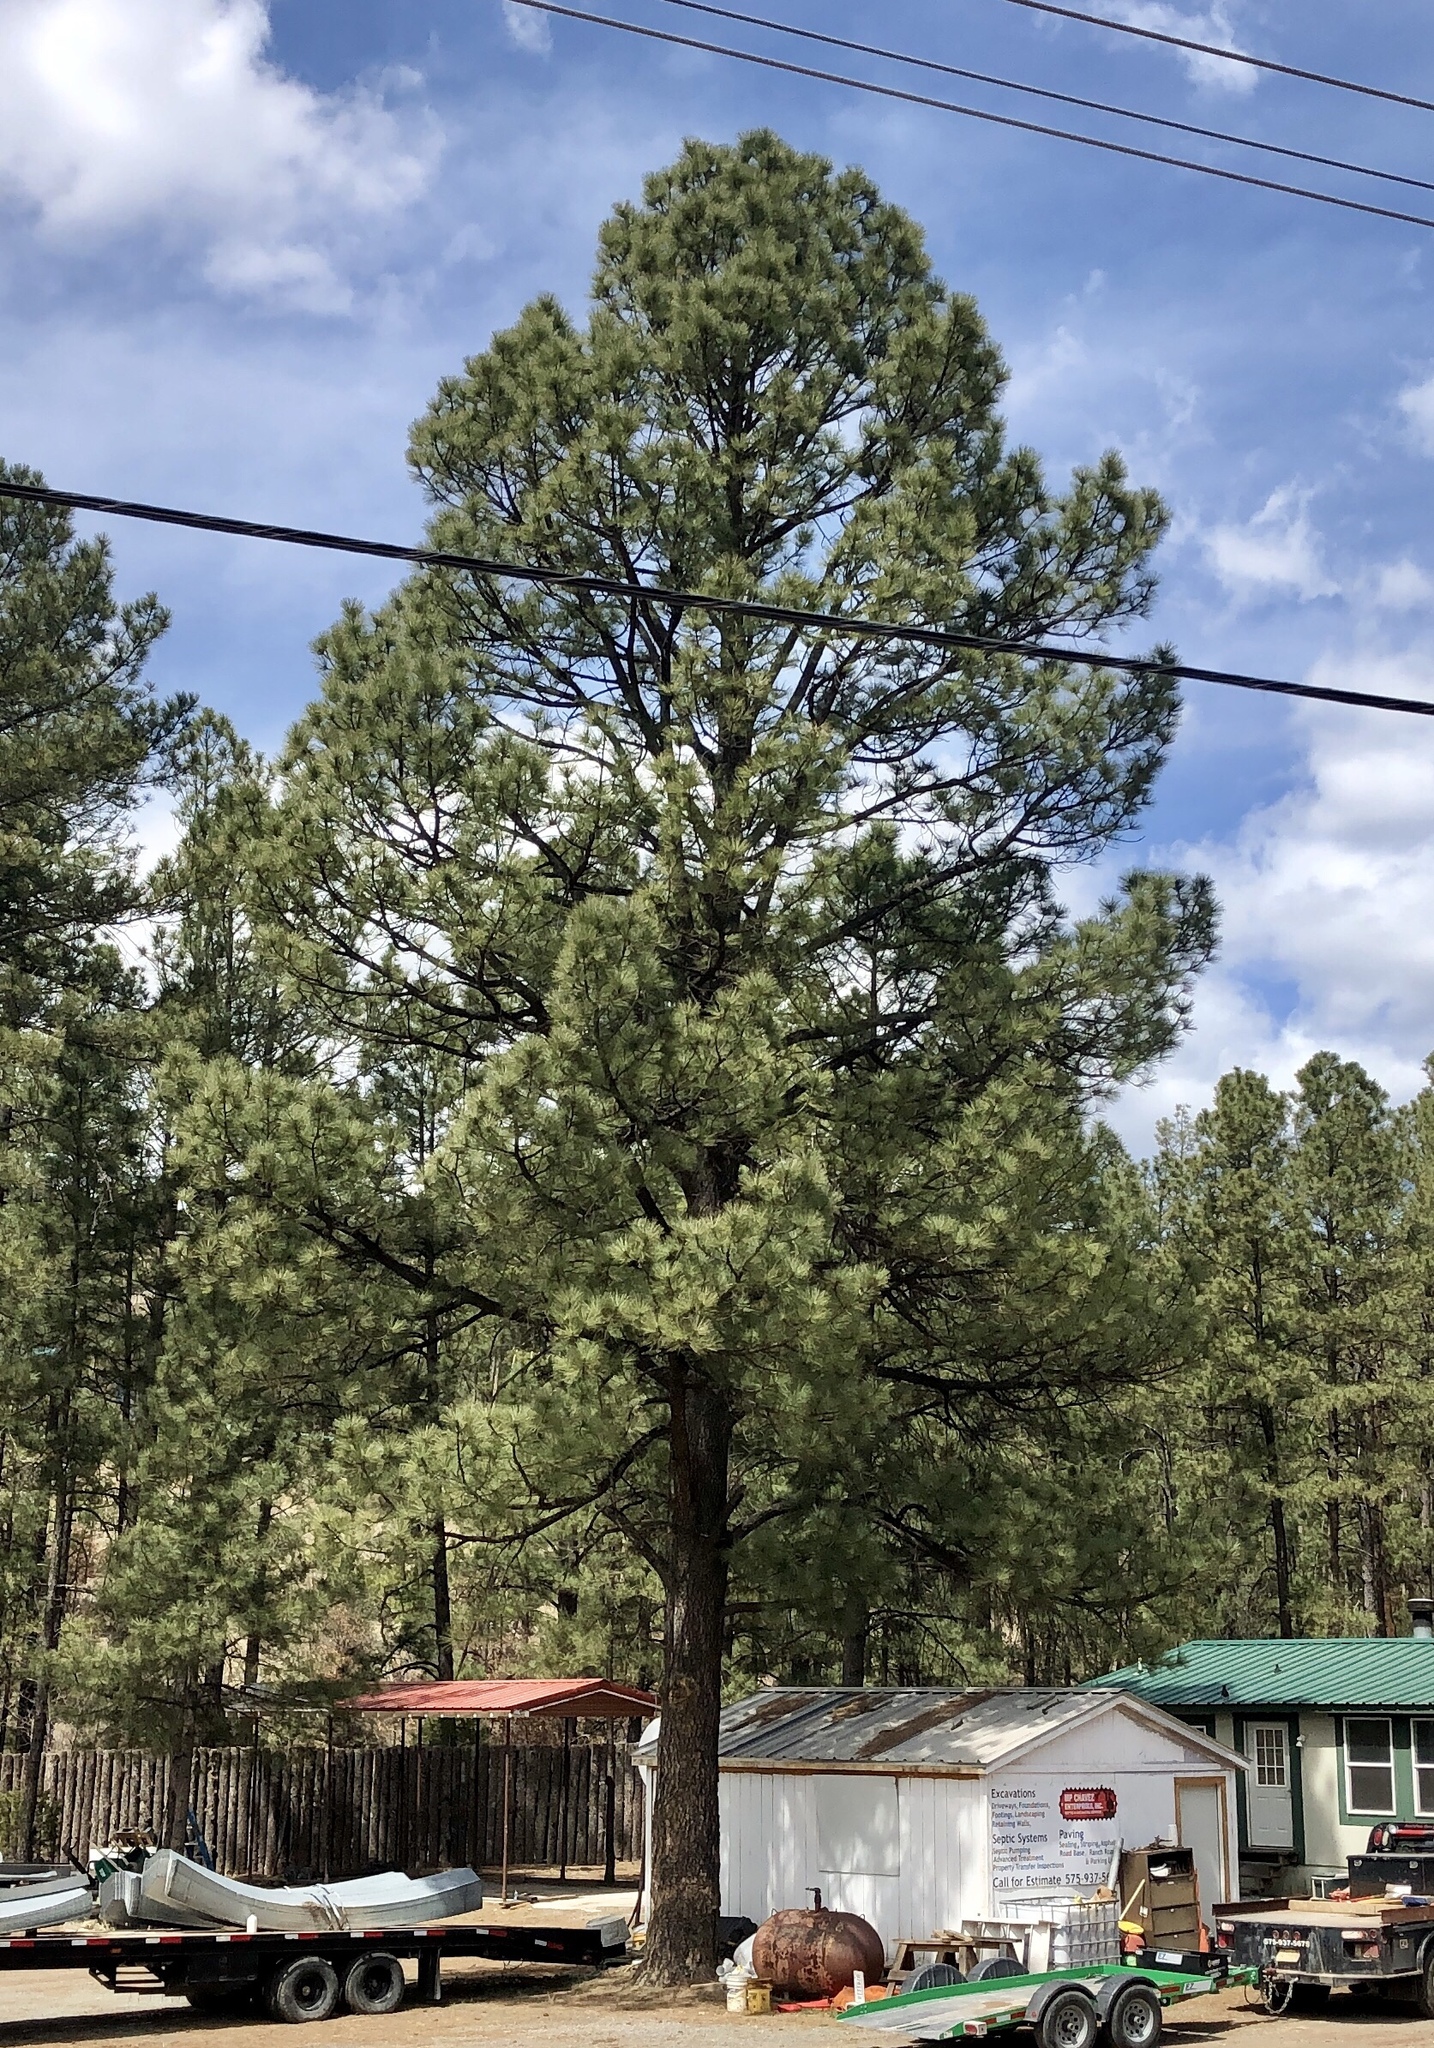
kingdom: Plantae
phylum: Tracheophyta
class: Pinopsida
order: Pinales
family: Pinaceae
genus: Pinus
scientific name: Pinus ponderosa
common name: Western yellow-pine
